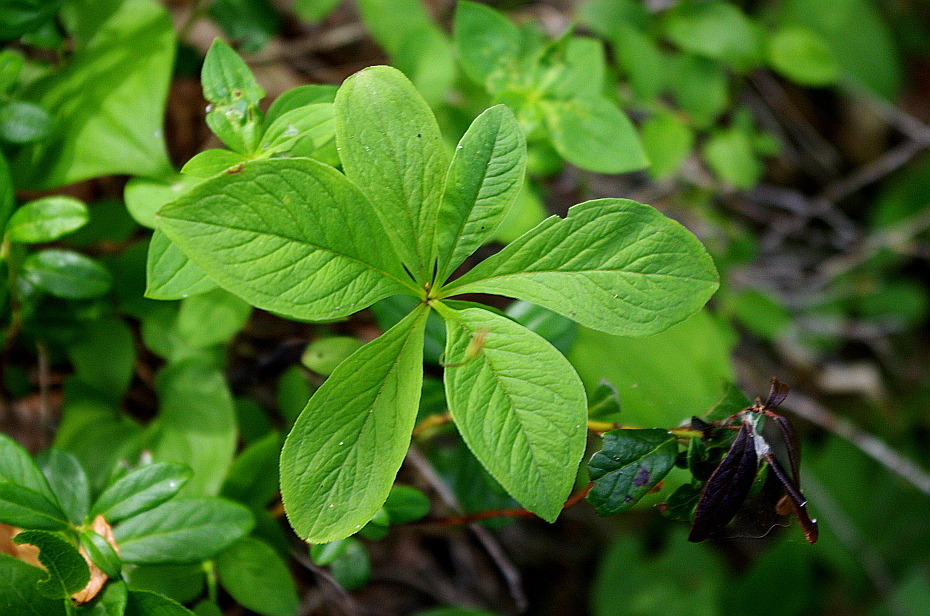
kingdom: Plantae
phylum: Tracheophyta
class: Magnoliopsida
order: Ericales
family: Primulaceae
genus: Lysimachia
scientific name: Lysimachia europaea
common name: Arctic starflower
